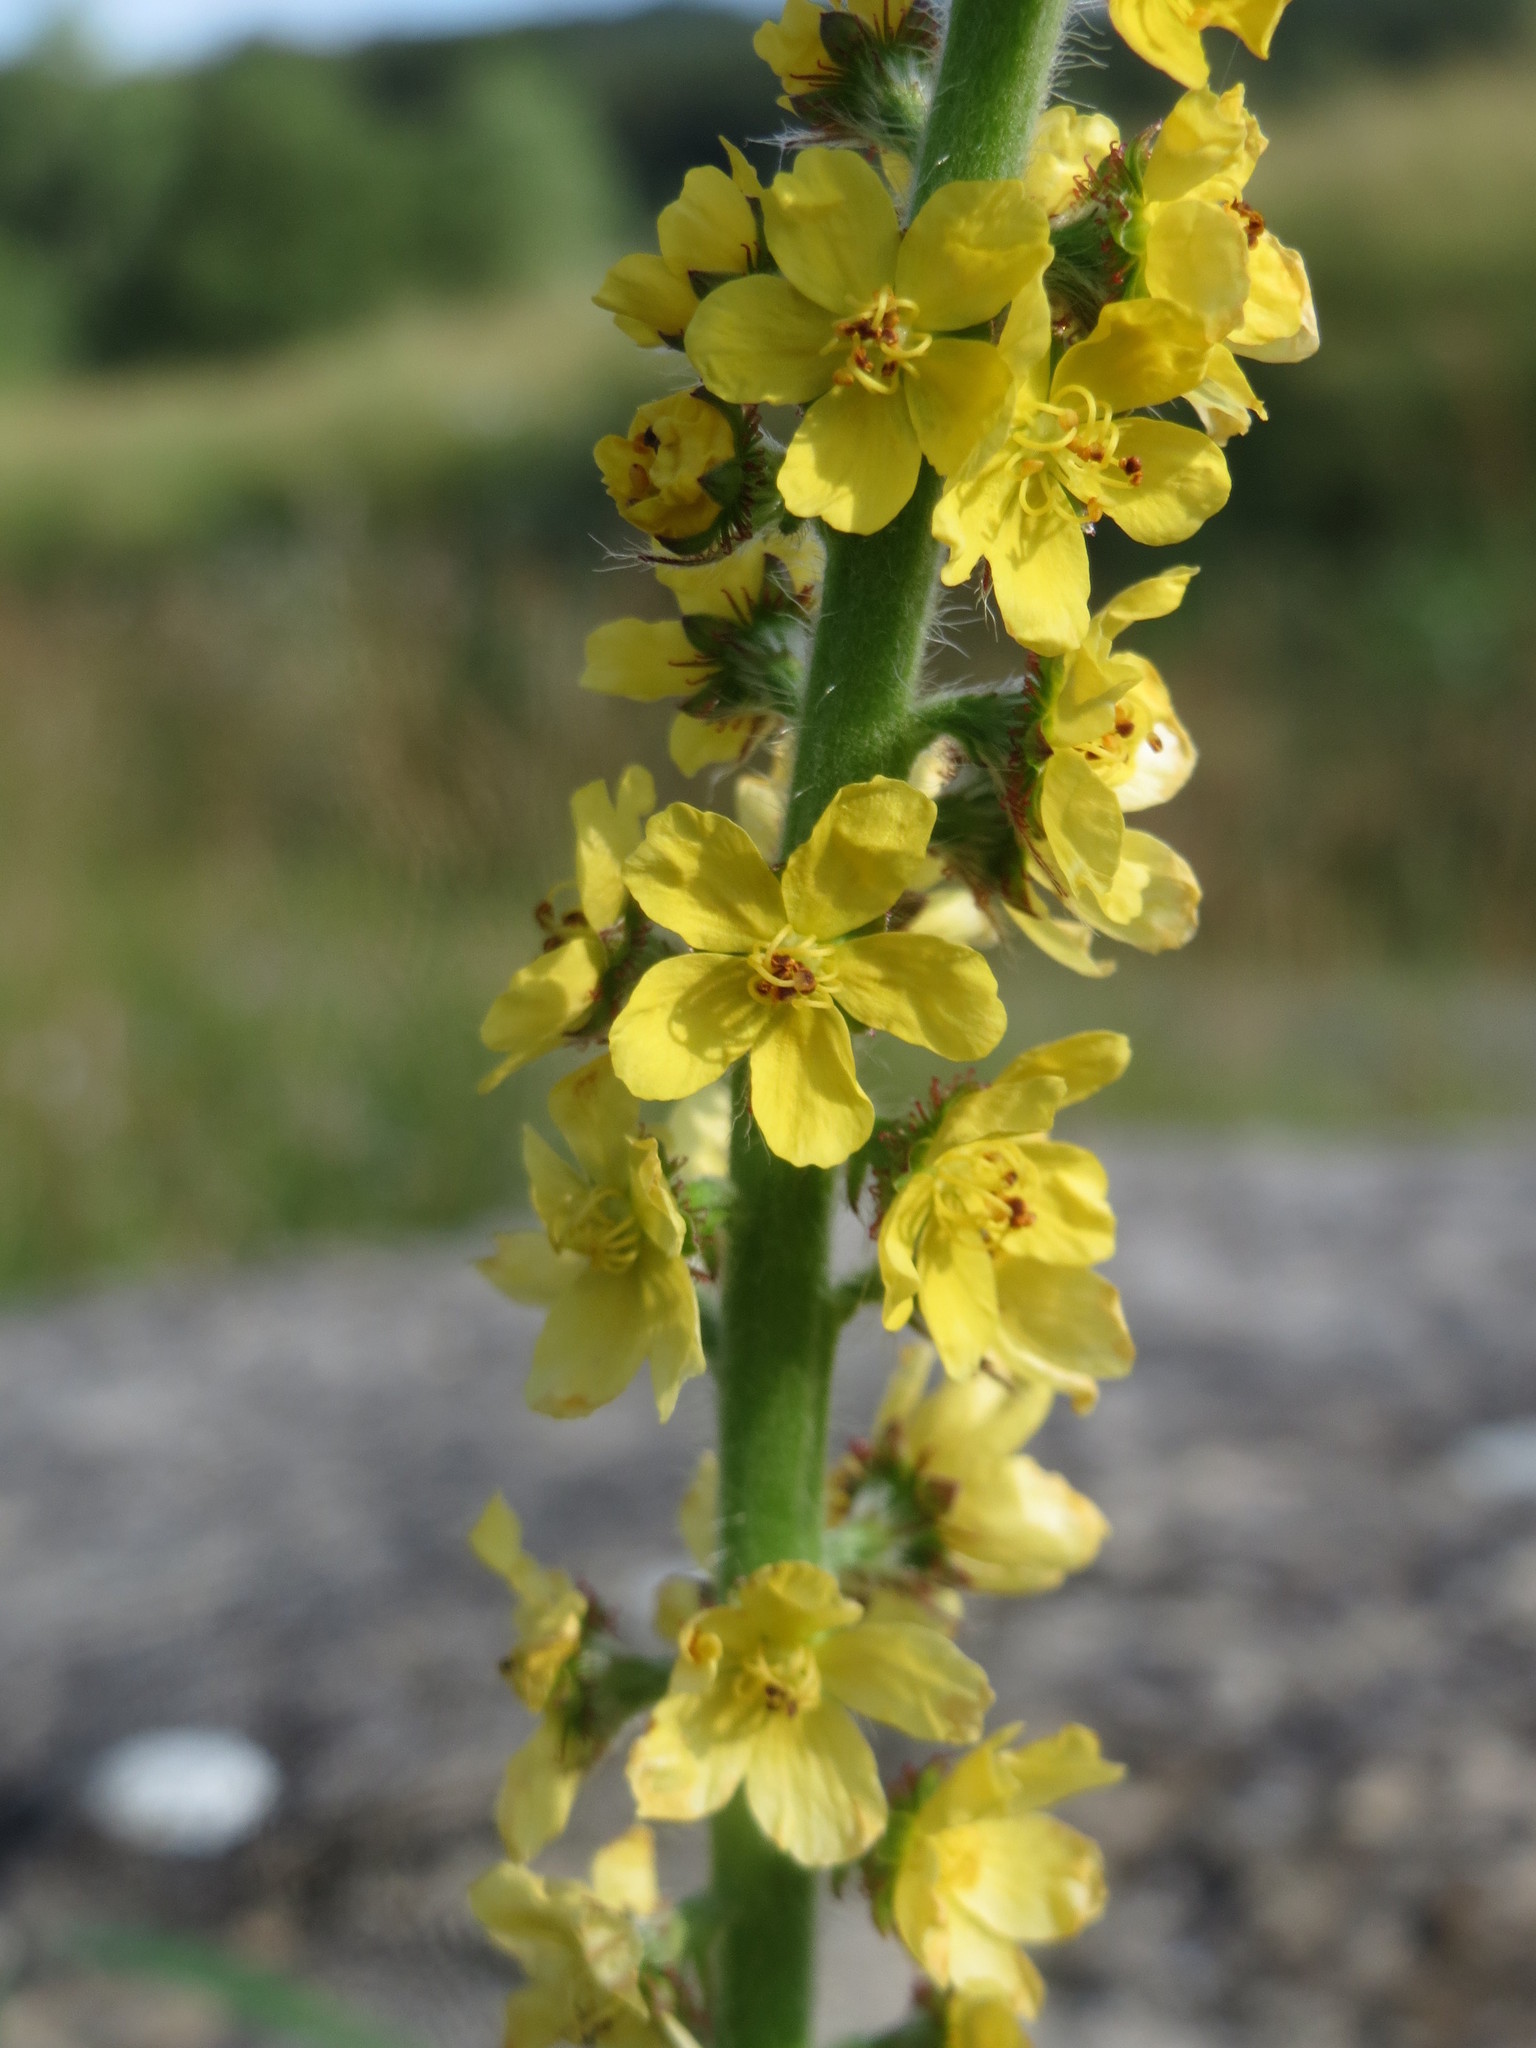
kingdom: Plantae
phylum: Tracheophyta
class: Magnoliopsida
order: Rosales
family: Rosaceae
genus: Agrimonia
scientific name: Agrimonia eupatoria
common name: Agrimony
